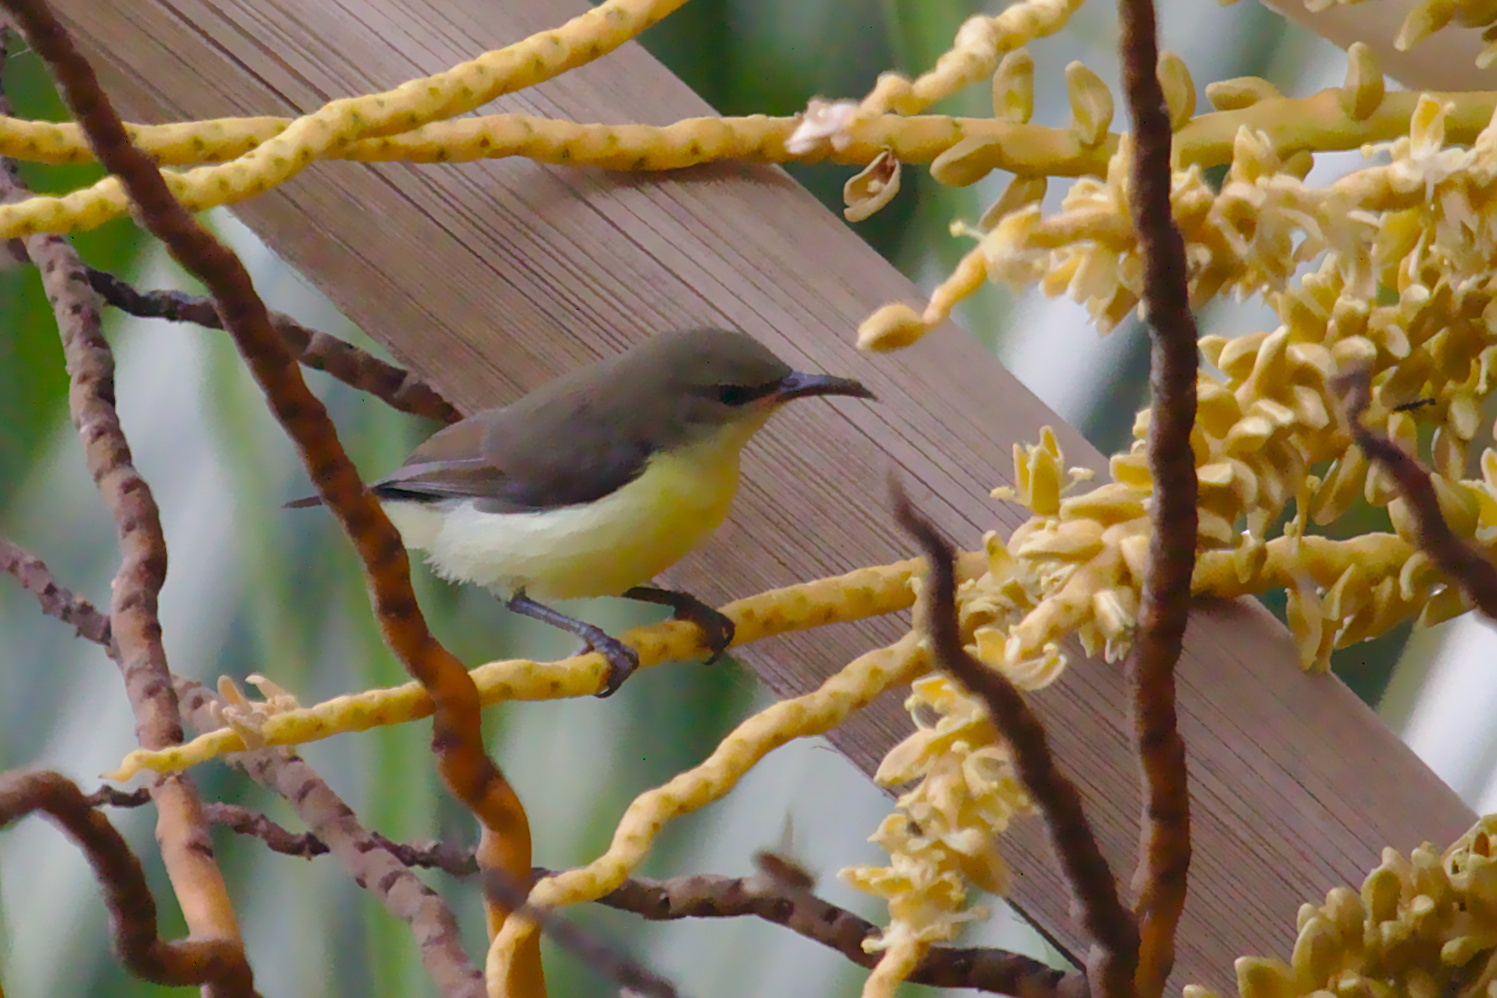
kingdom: Animalia
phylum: Chordata
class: Aves
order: Passeriformes
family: Nectariniidae
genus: Leptocoma
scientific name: Leptocoma zeylonica
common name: Purple-rumped sunbird
